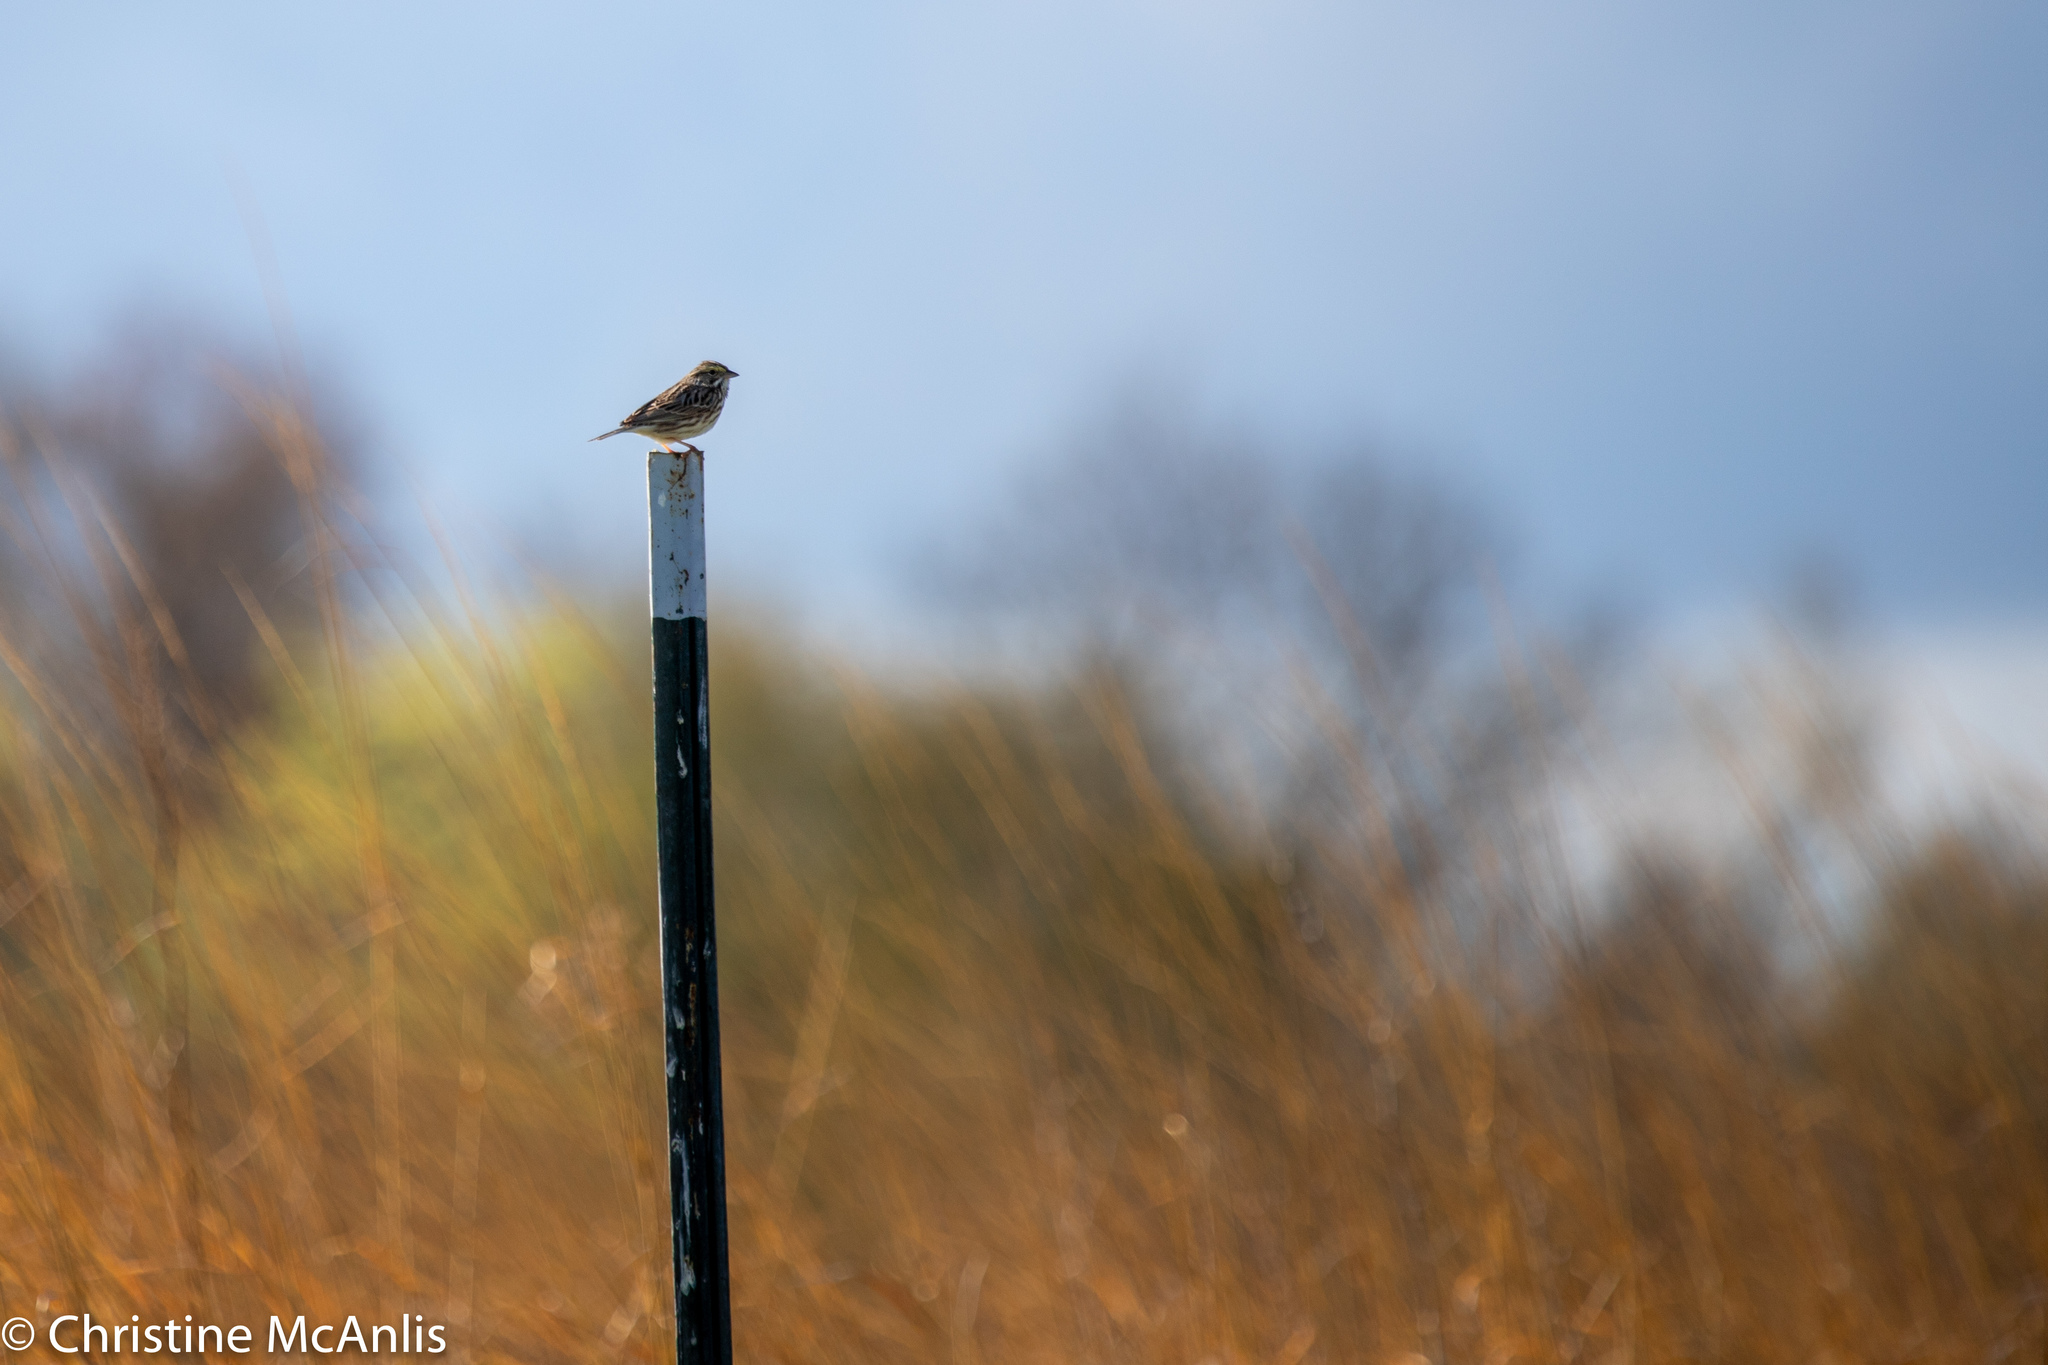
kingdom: Animalia
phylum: Chordata
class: Aves
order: Passeriformes
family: Passerellidae
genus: Passerculus
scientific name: Passerculus sandwichensis
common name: Savannah sparrow
